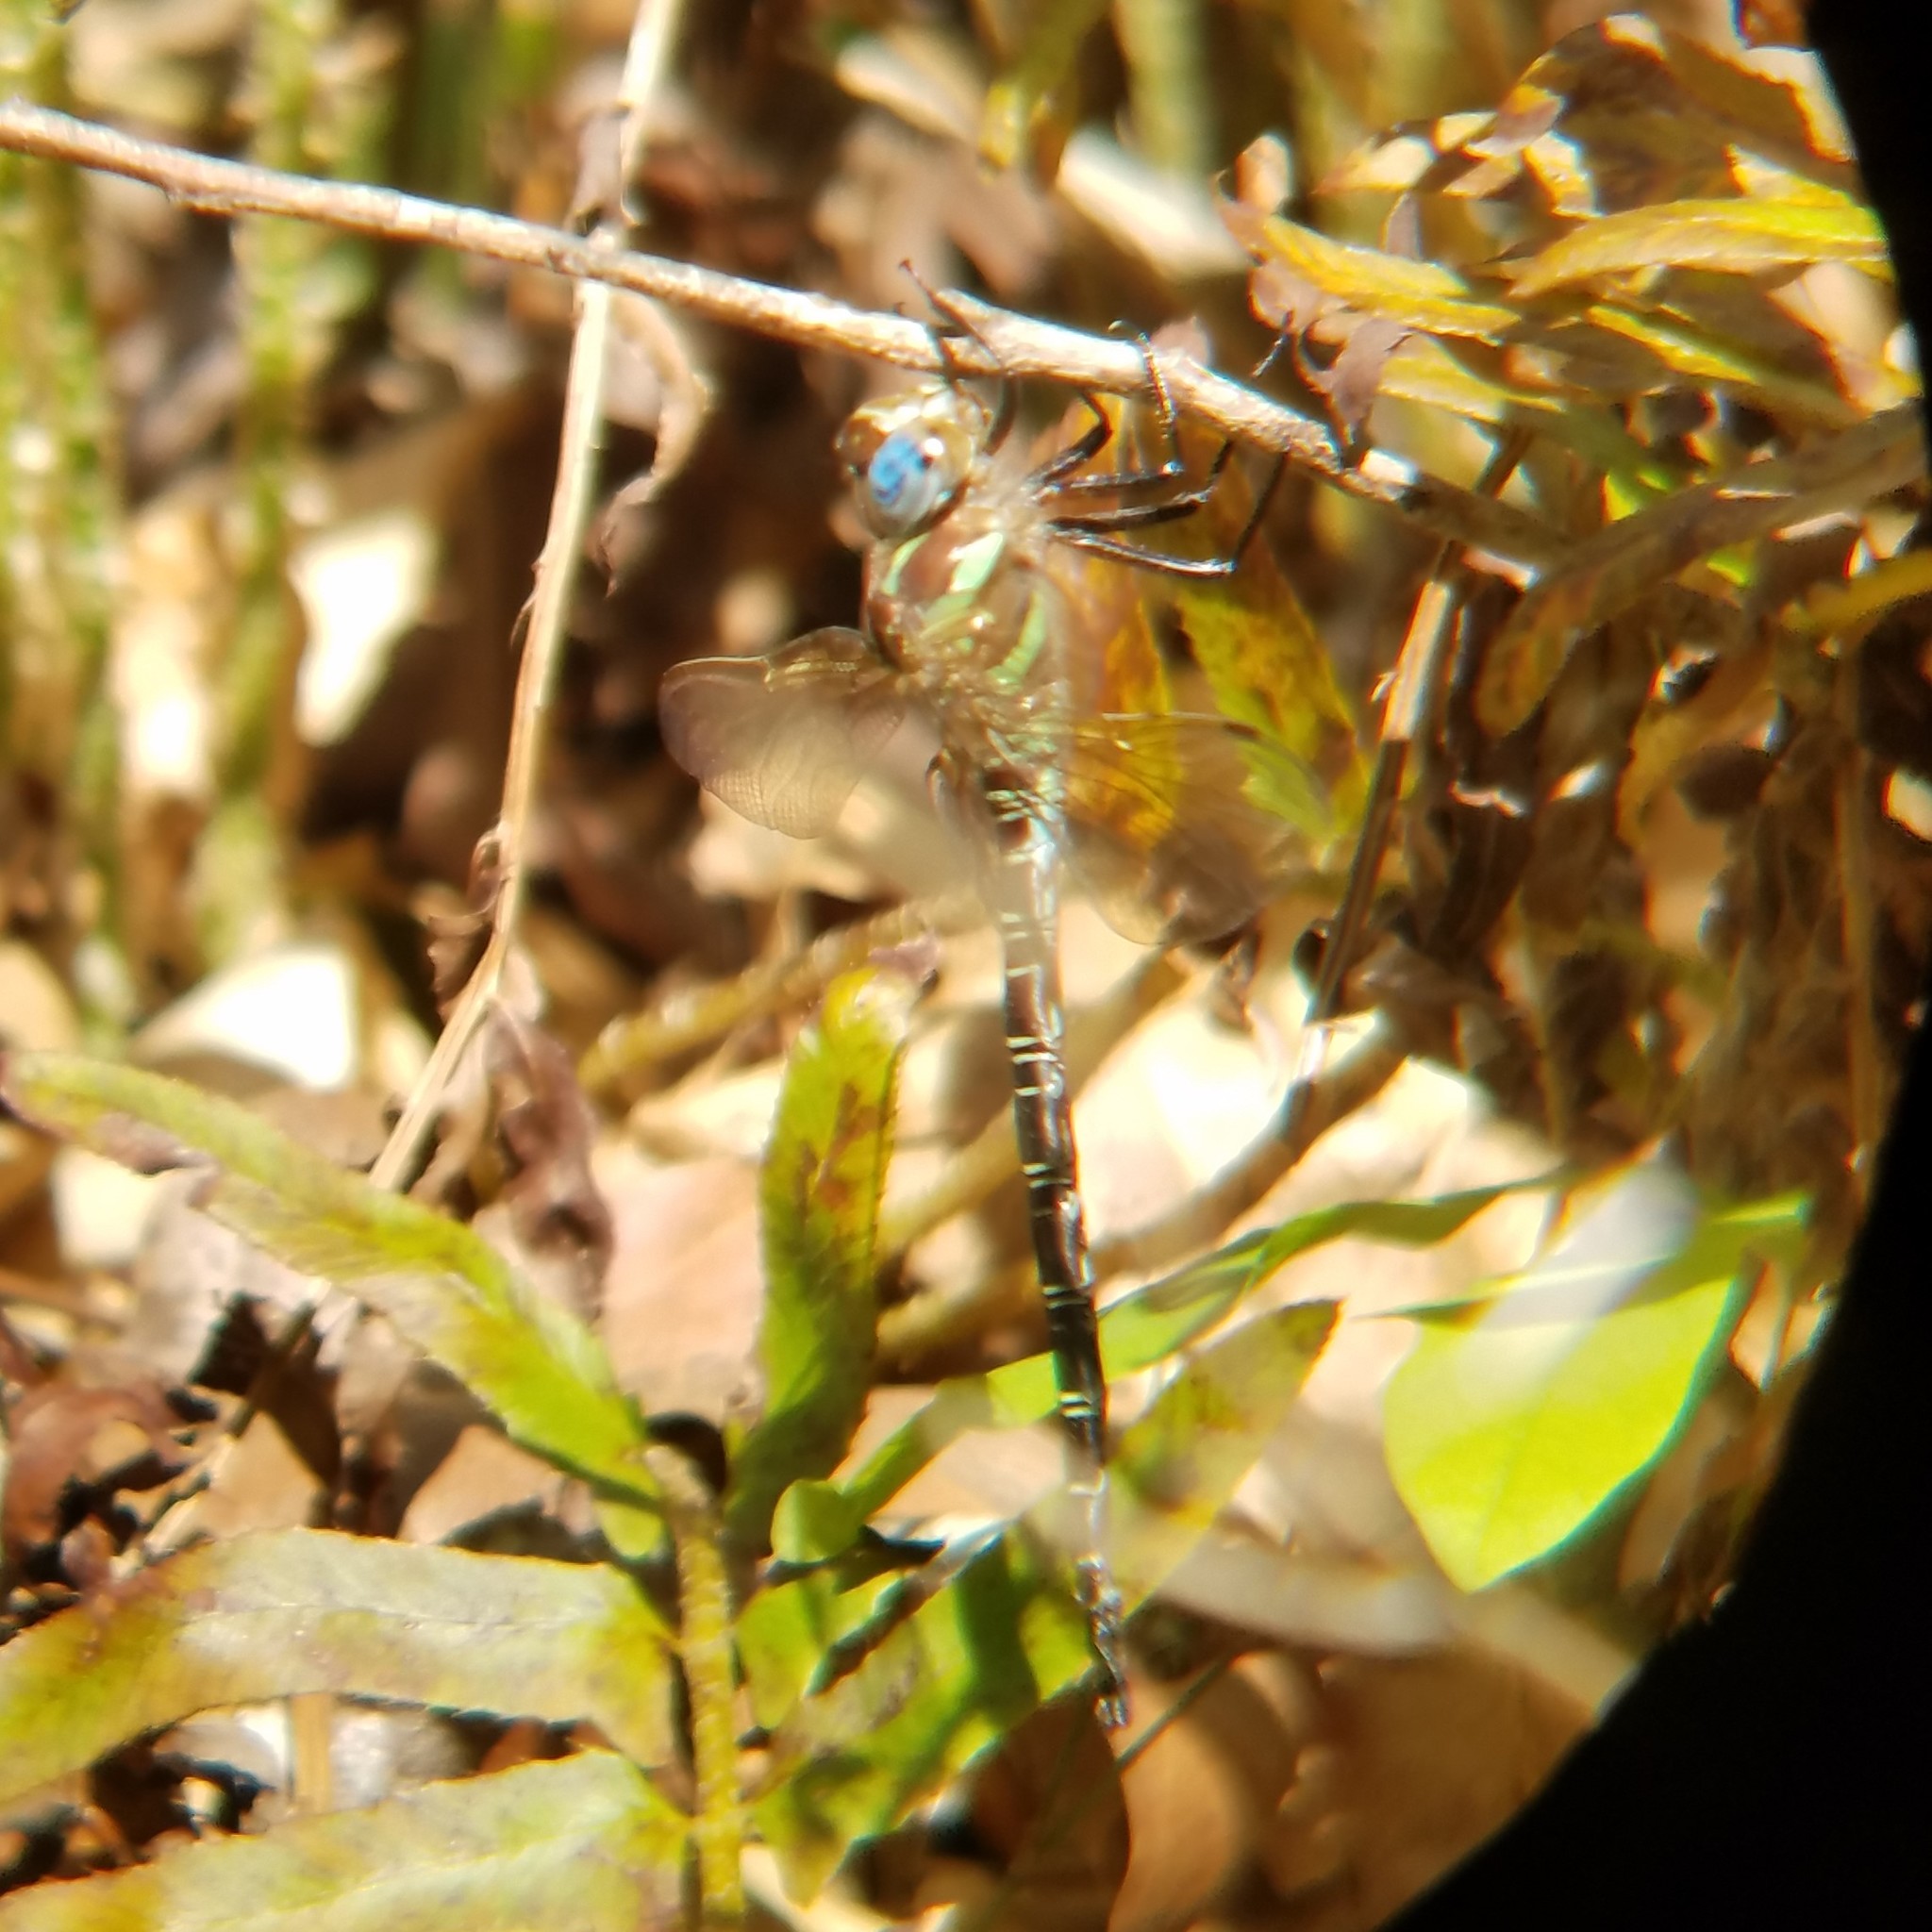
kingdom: Animalia
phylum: Arthropoda
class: Insecta
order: Odonata
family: Aeshnidae
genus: Epiaeschna
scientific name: Epiaeschna heros
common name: Swamp darner
